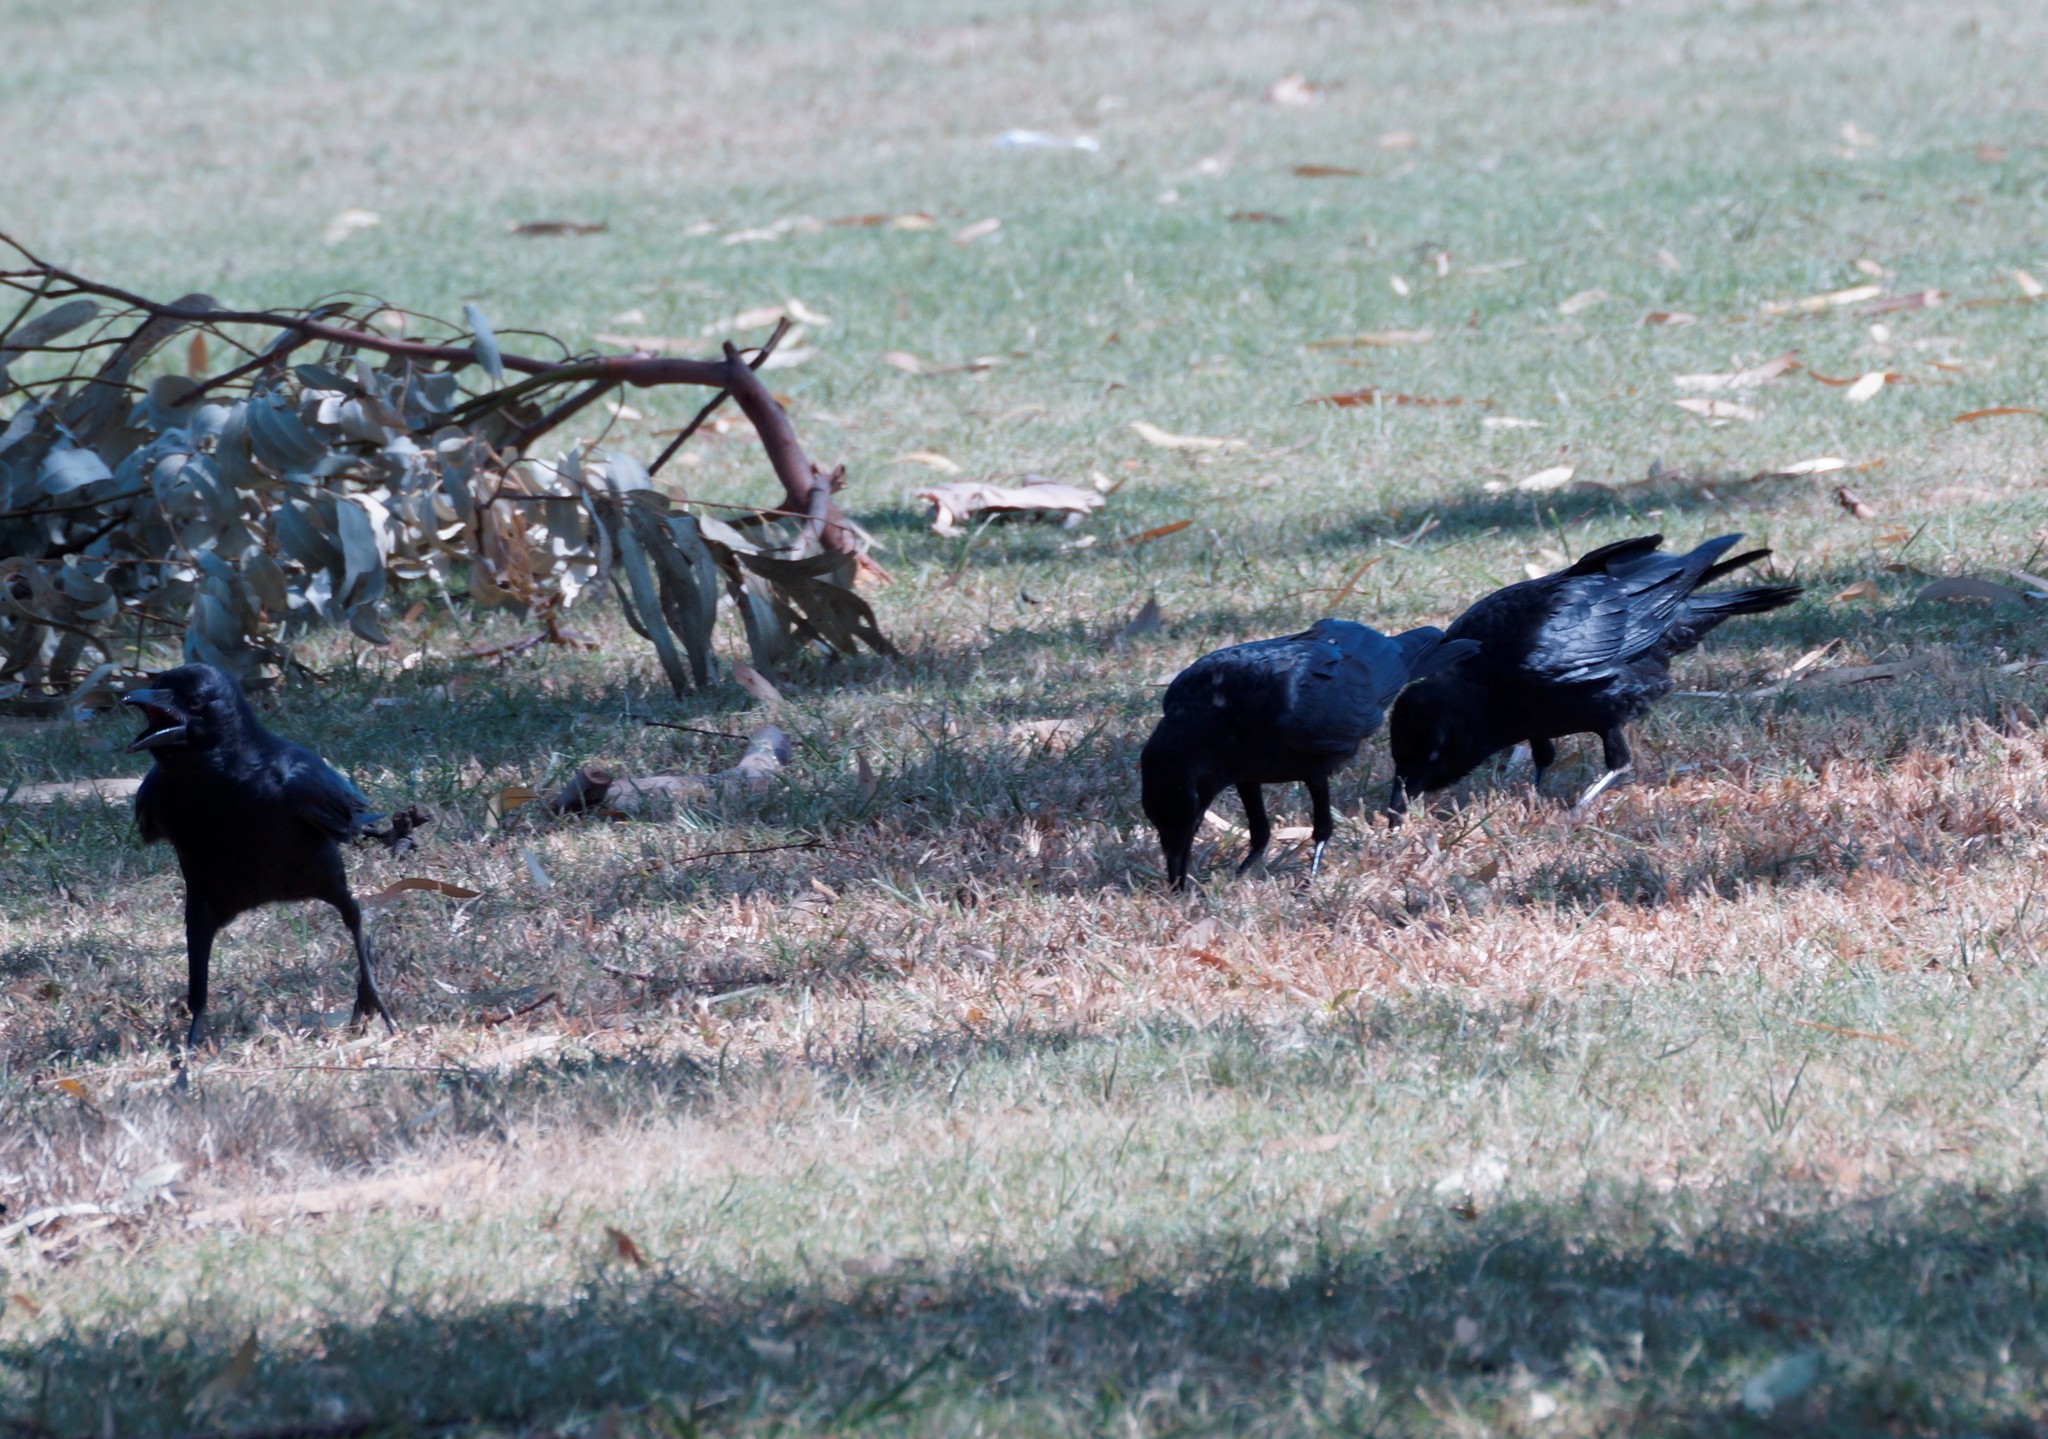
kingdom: Animalia
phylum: Chordata
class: Aves
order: Passeriformes
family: Corvidae
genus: Corvus
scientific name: Corvus orru
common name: Torresian crow
